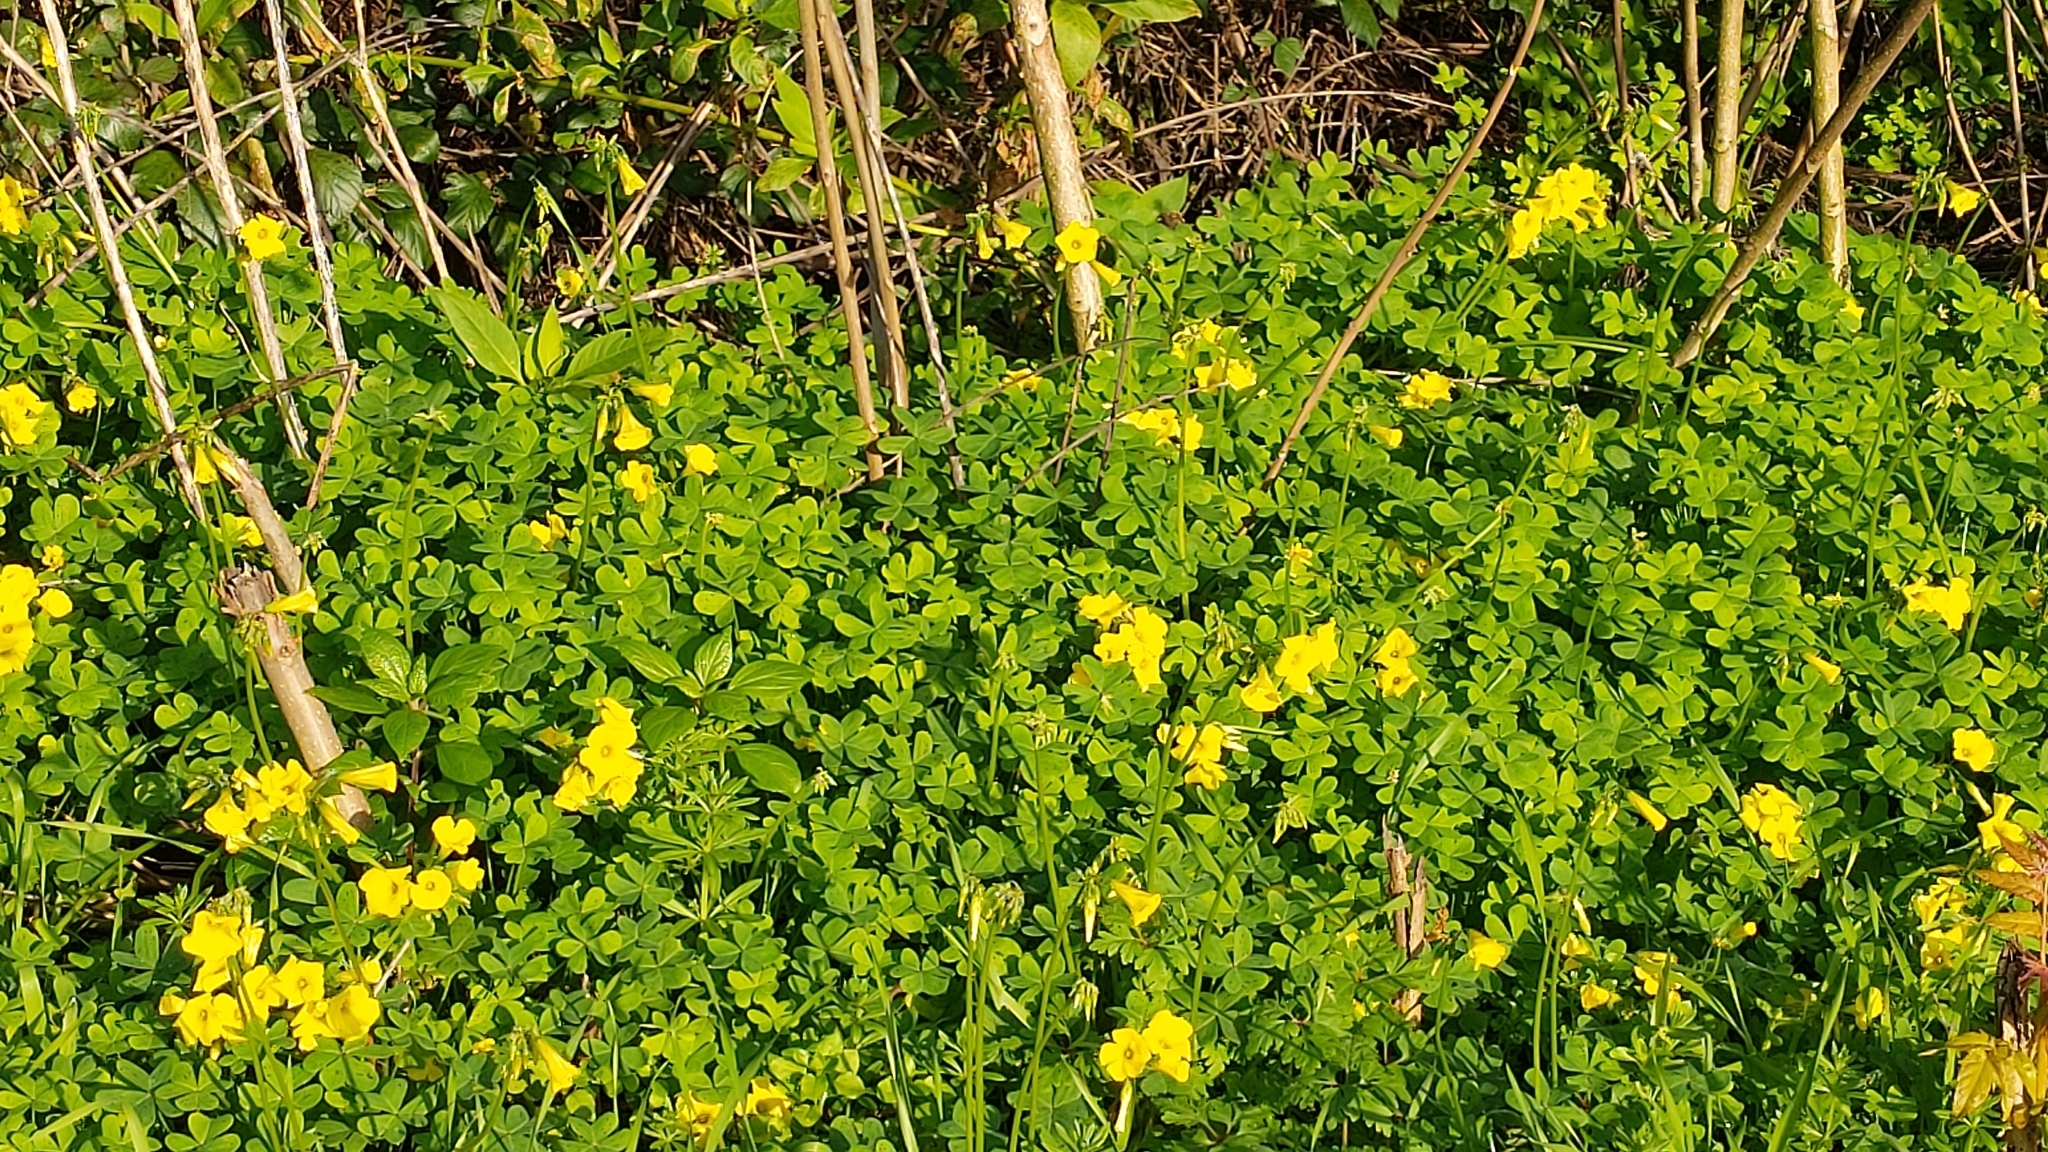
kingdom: Plantae
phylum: Tracheophyta
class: Magnoliopsida
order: Oxalidales
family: Oxalidaceae
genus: Oxalis
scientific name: Oxalis pes-caprae
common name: Bermuda-buttercup
